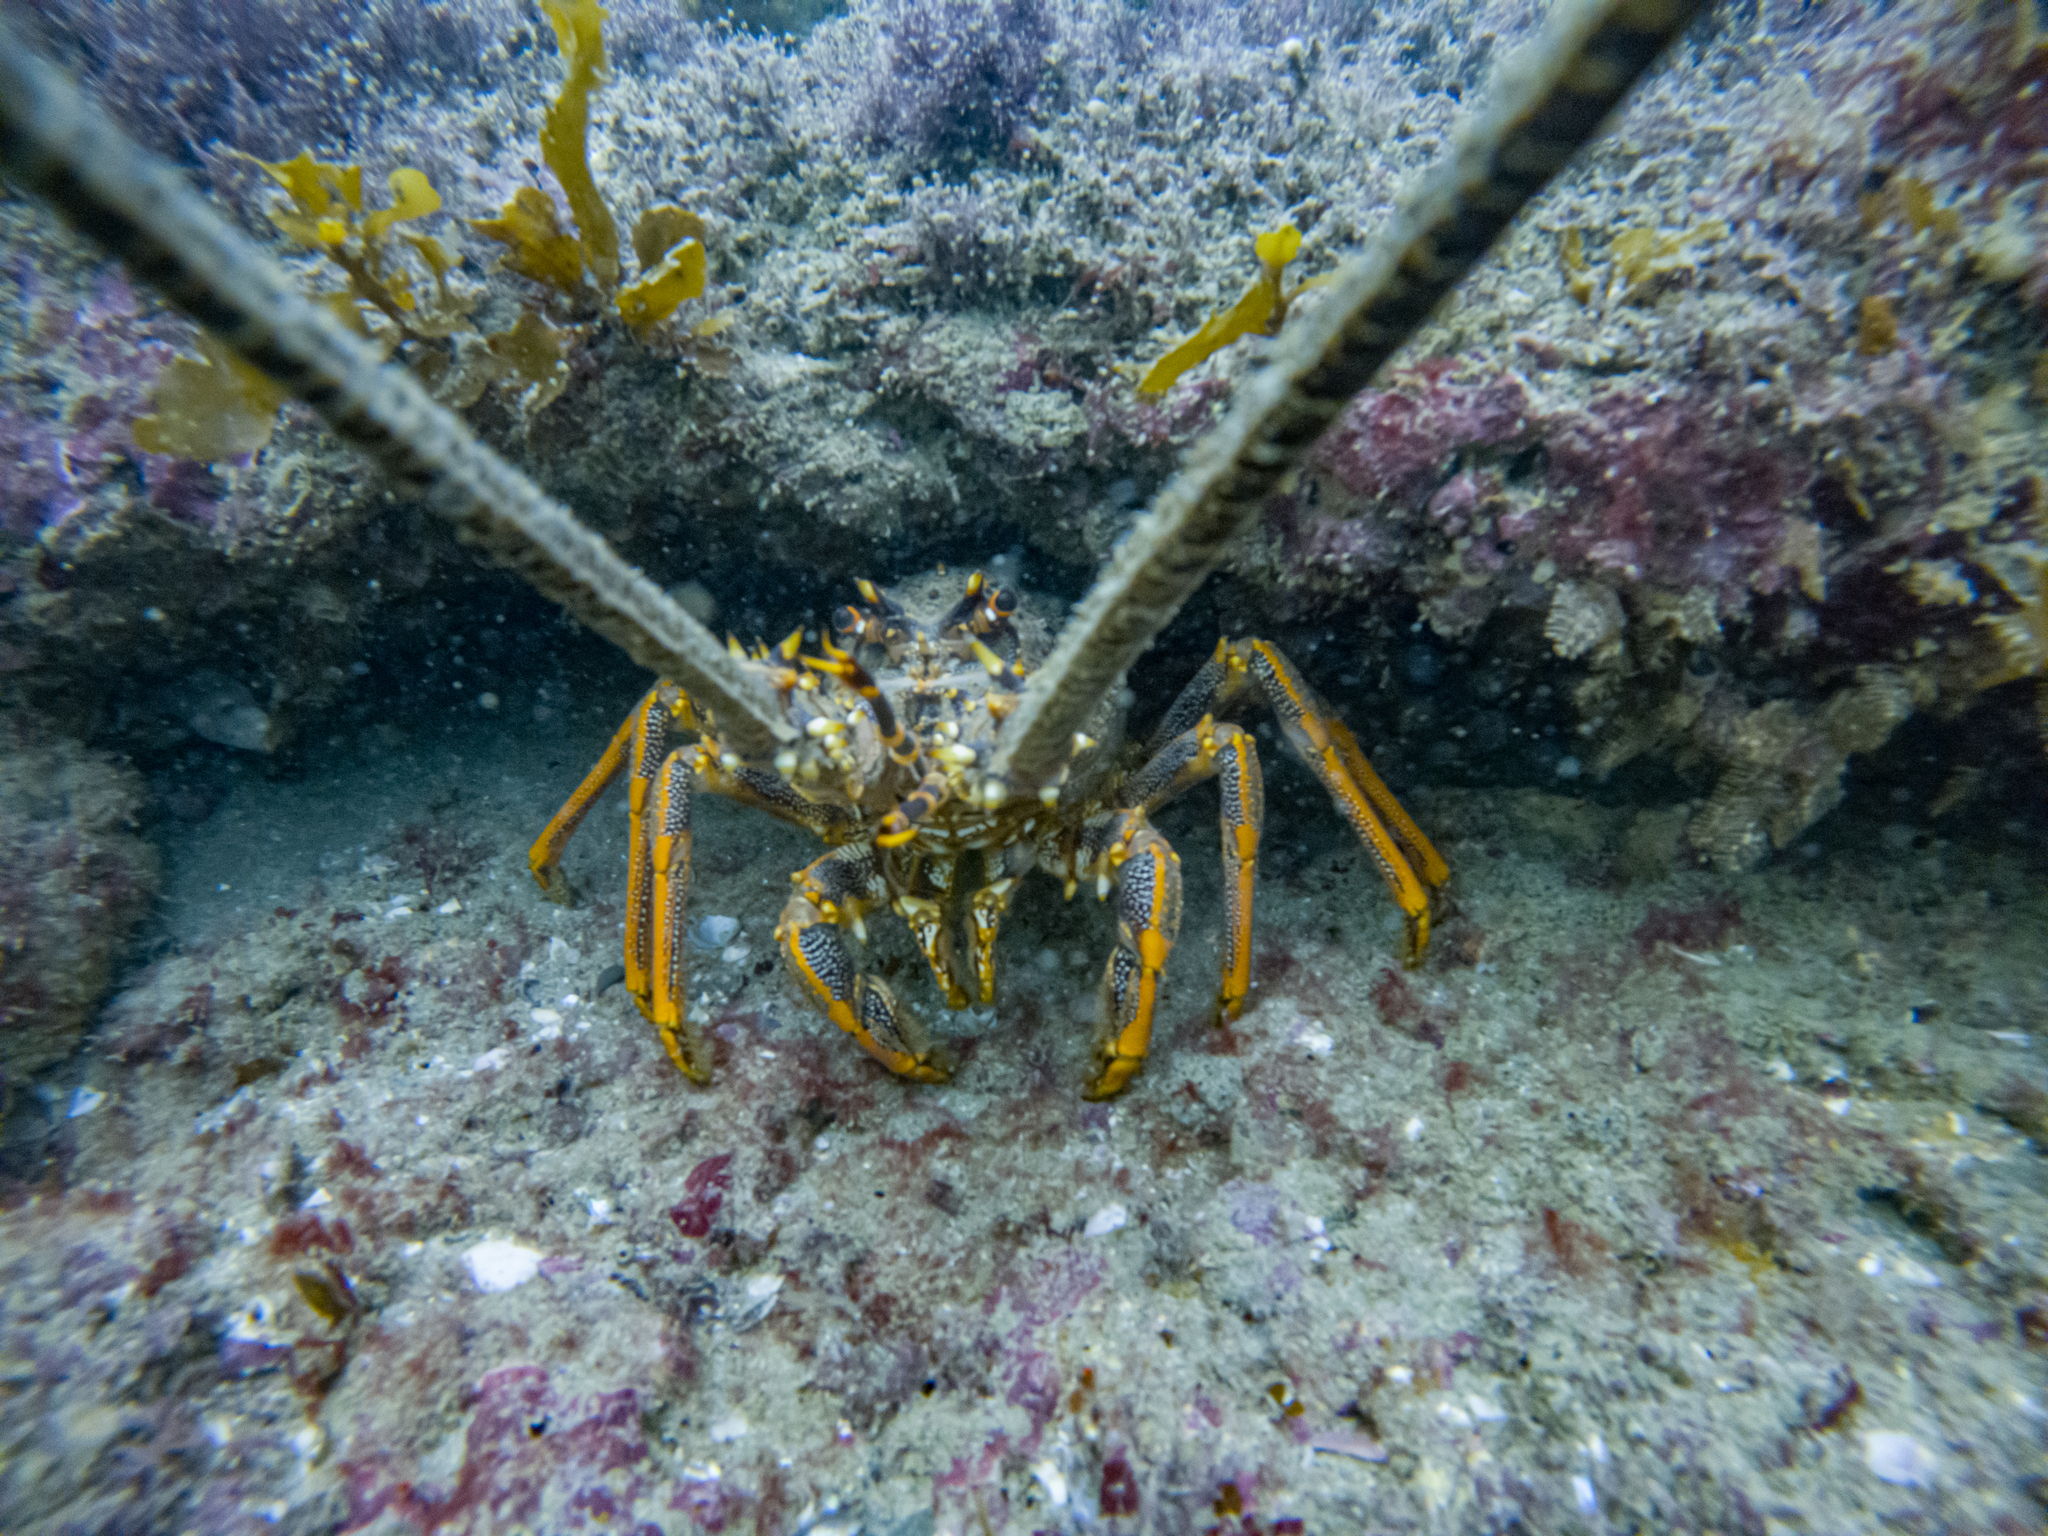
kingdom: Animalia
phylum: Arthropoda
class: Malacostraca
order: Decapoda
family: Palinuridae
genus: Jasus
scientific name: Jasus edwardsii
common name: Red rock lobster
